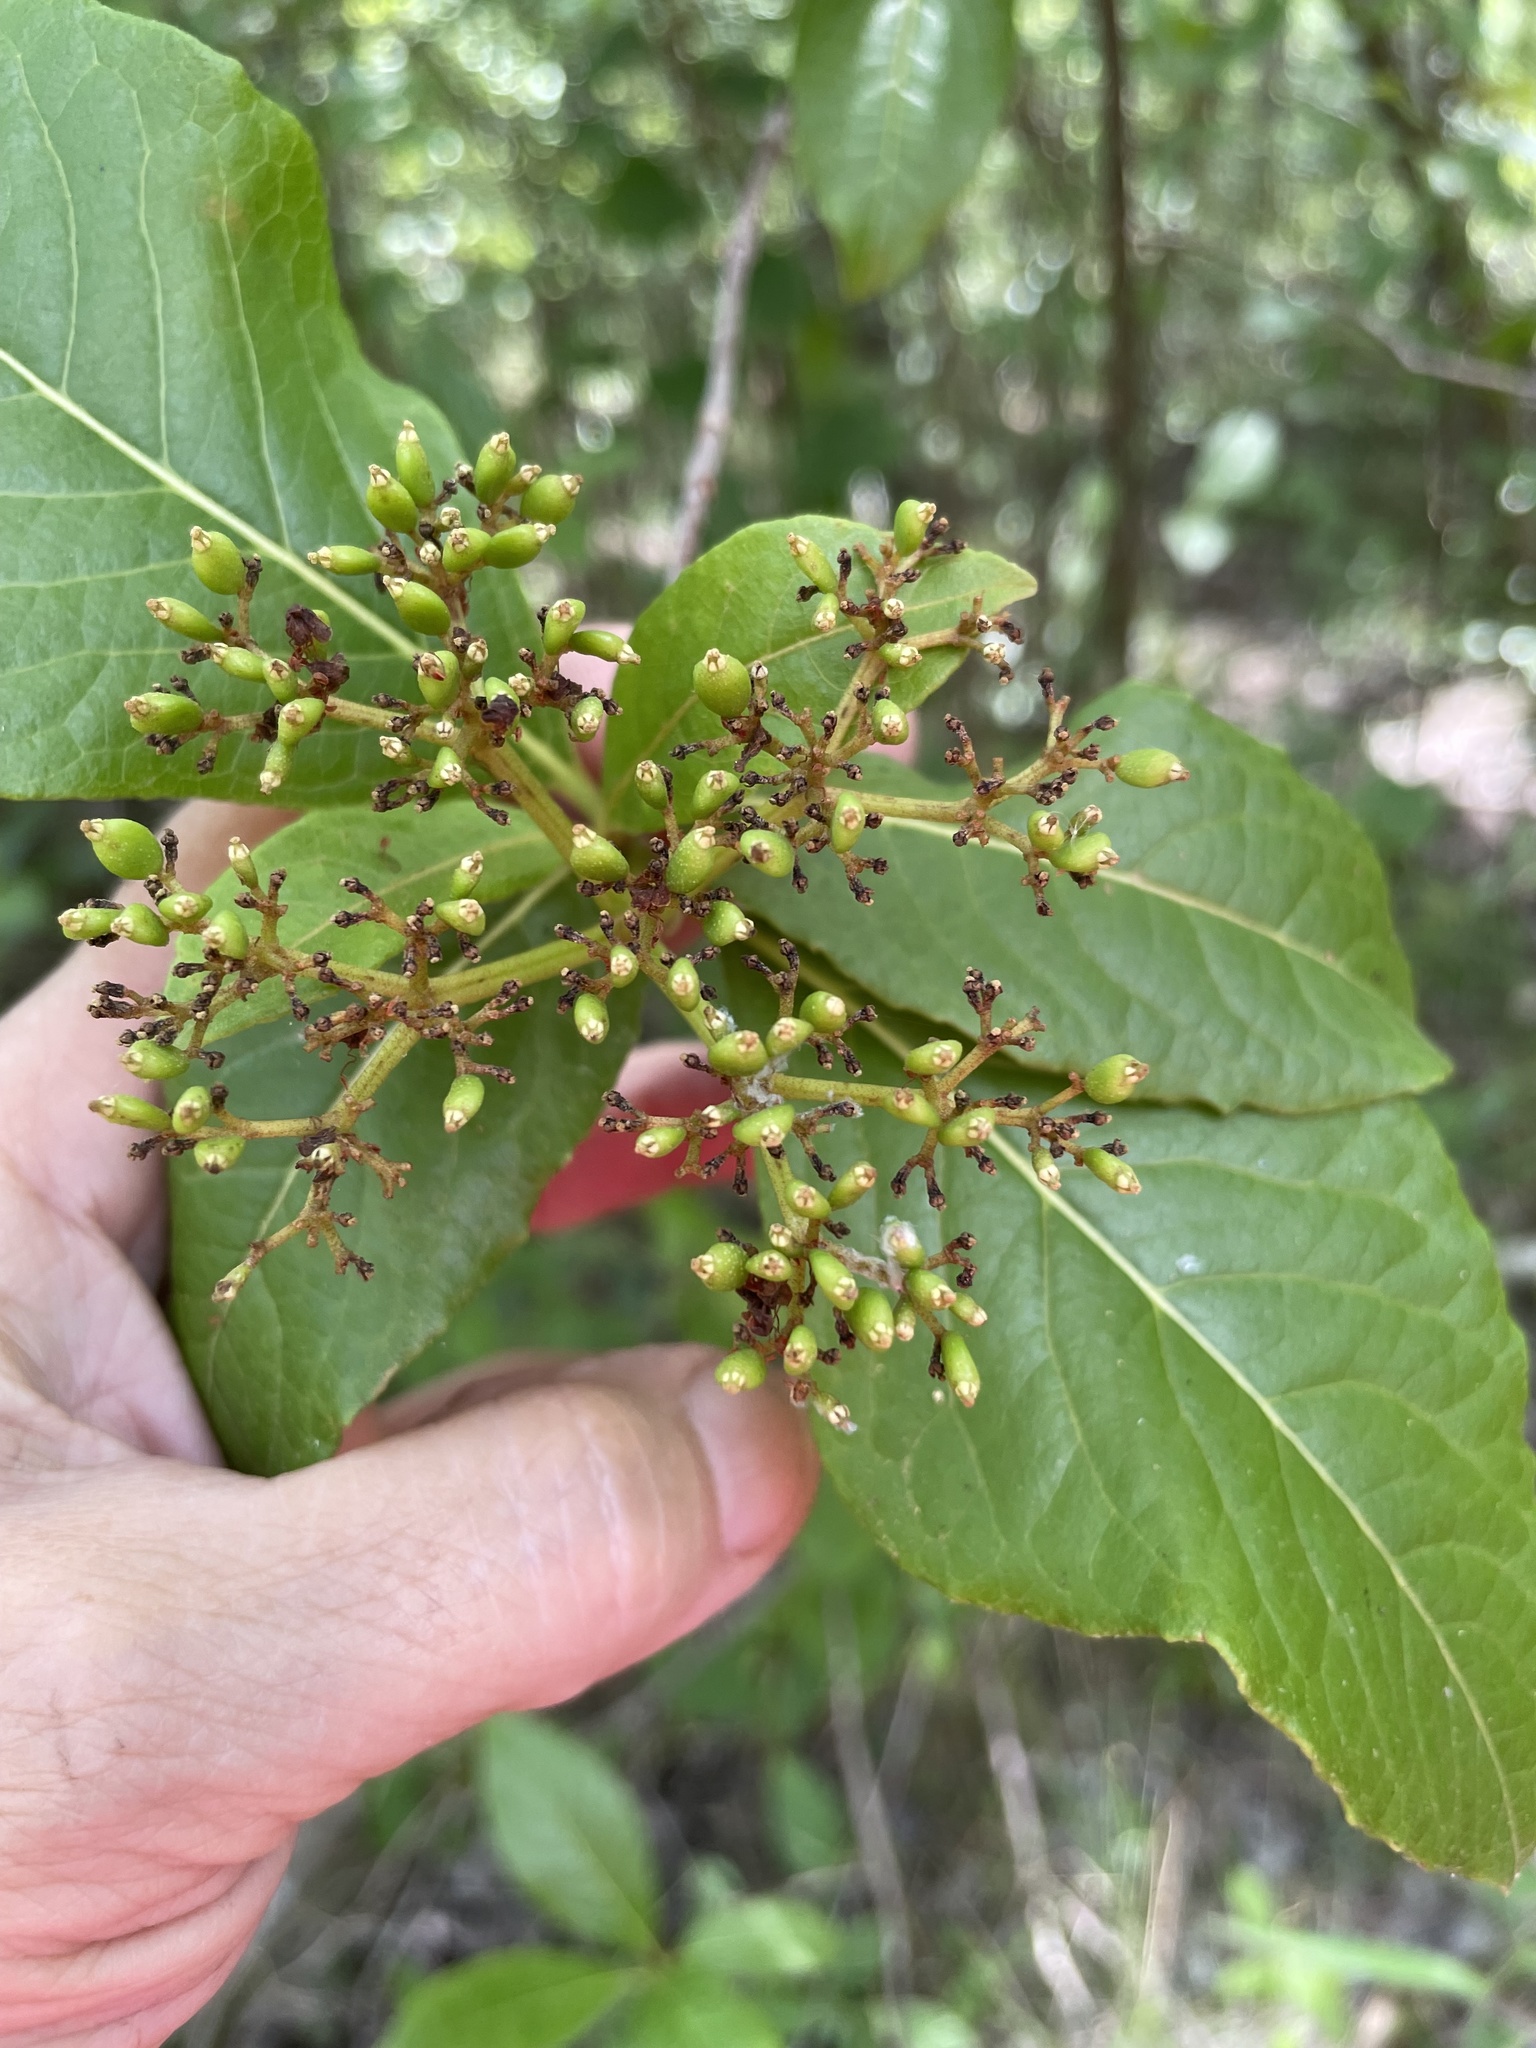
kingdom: Plantae
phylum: Tracheophyta
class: Magnoliopsida
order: Dipsacales
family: Viburnaceae
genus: Viburnum
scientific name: Viburnum nudum
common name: Possum haw
